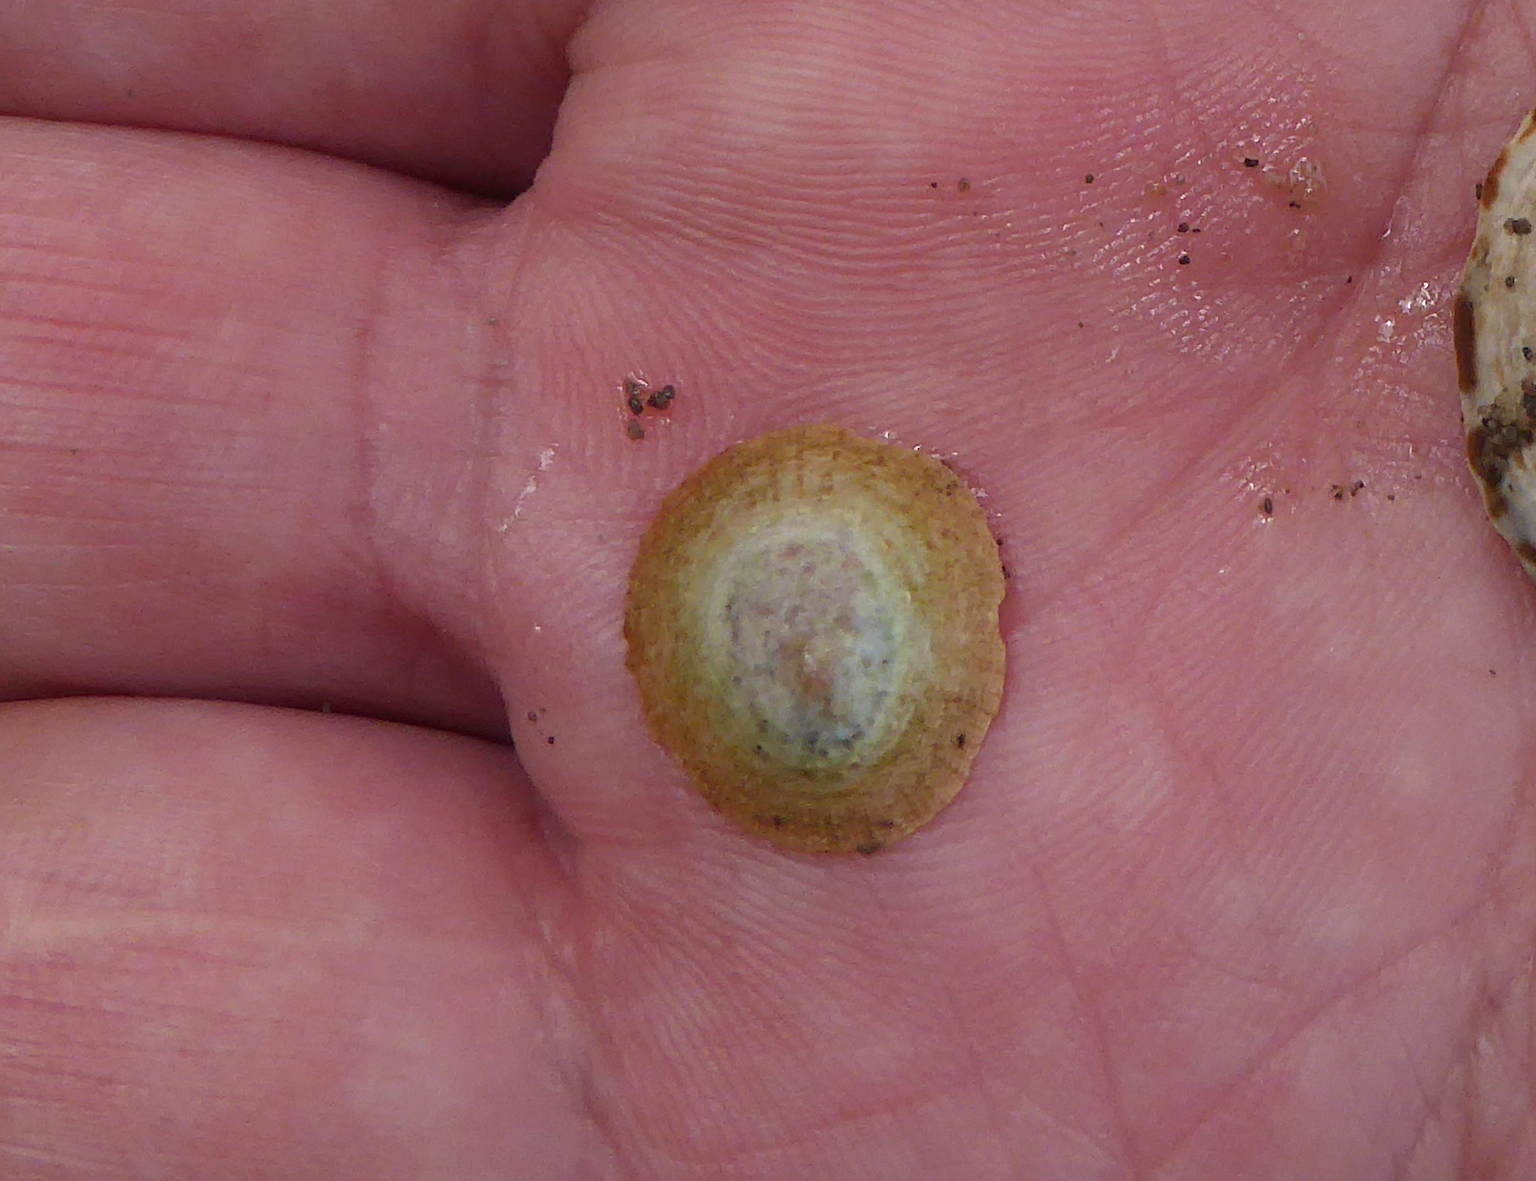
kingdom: Animalia
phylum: Mollusca
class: Gastropoda
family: Lottiidae
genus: Lottia
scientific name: Lottia limatula
